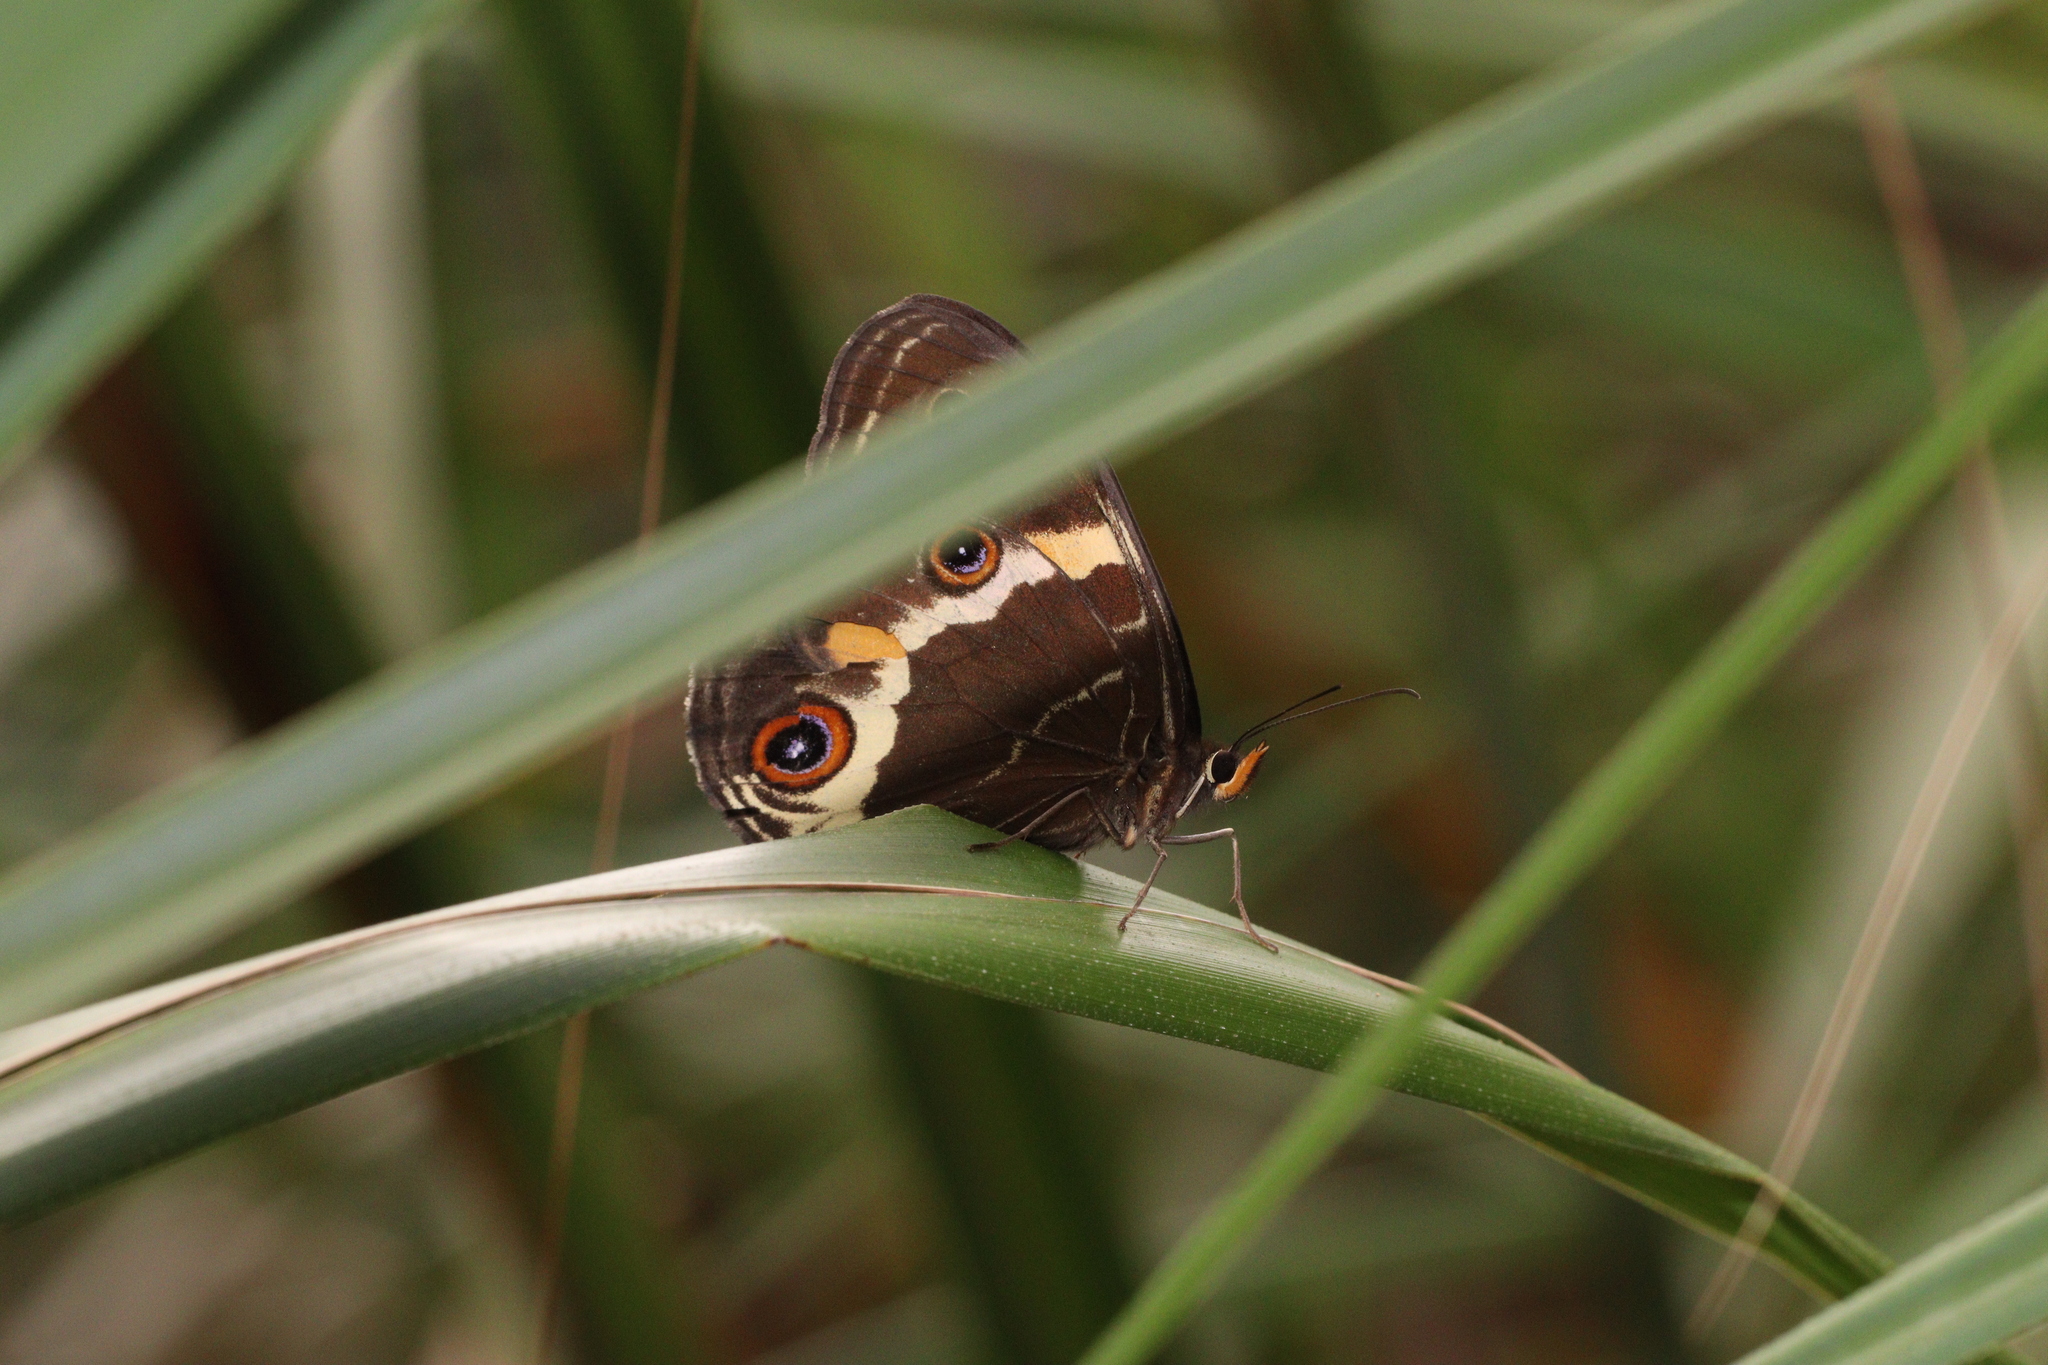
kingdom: Animalia
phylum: Arthropoda
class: Insecta
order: Lepidoptera
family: Nymphalidae
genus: Tisiphone
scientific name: Tisiphone abeona
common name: Swordgrass brown
